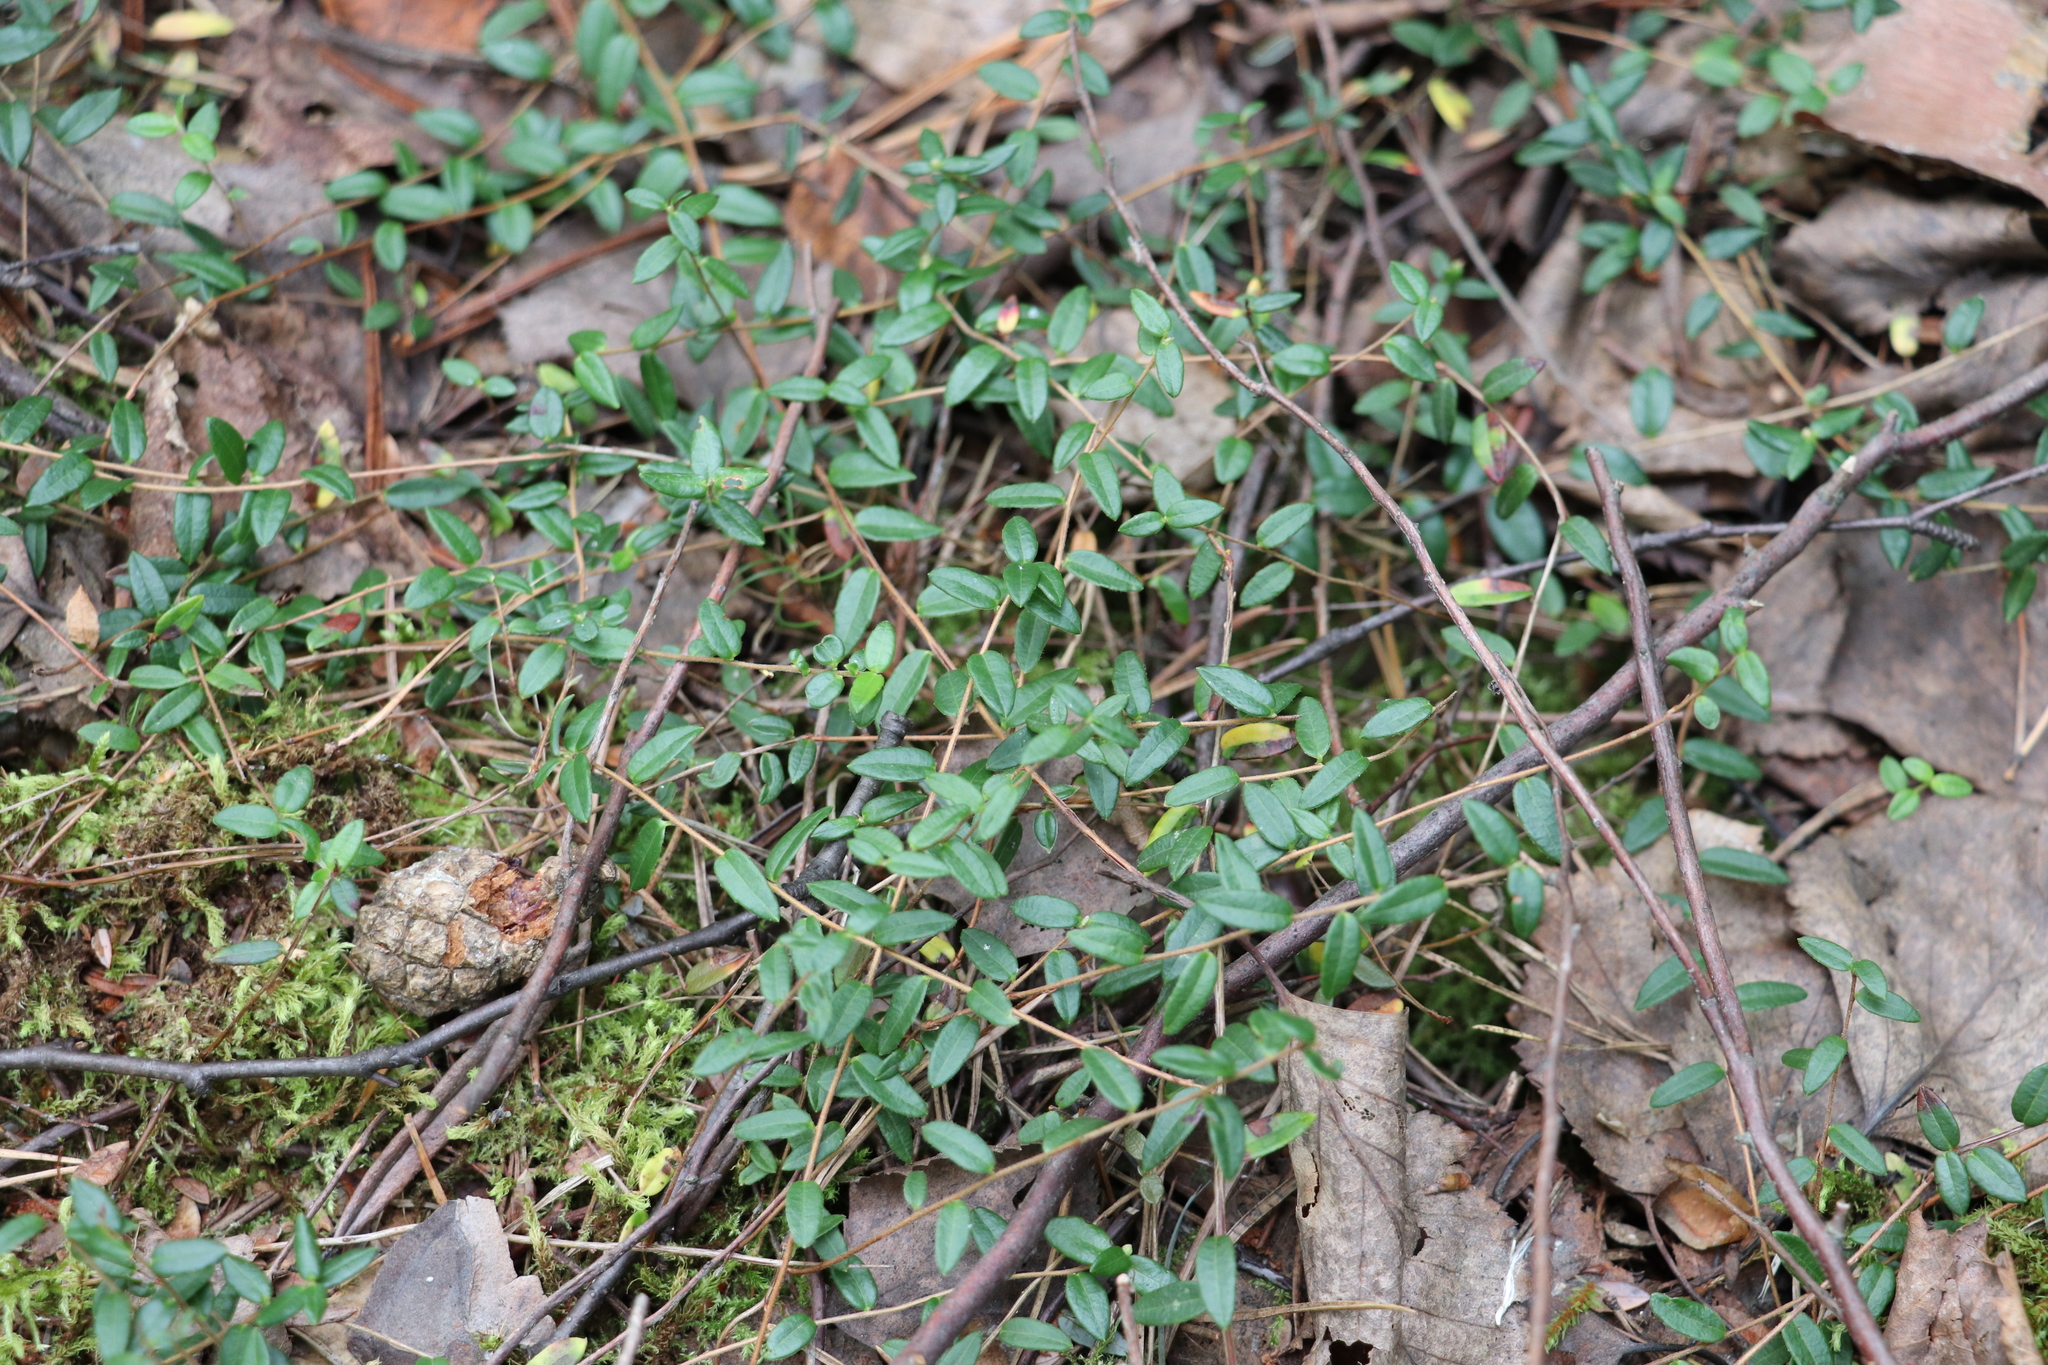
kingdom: Plantae
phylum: Tracheophyta
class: Magnoliopsida
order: Ericales
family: Ericaceae
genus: Vaccinium
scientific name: Vaccinium oxycoccos
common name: Cranberry
